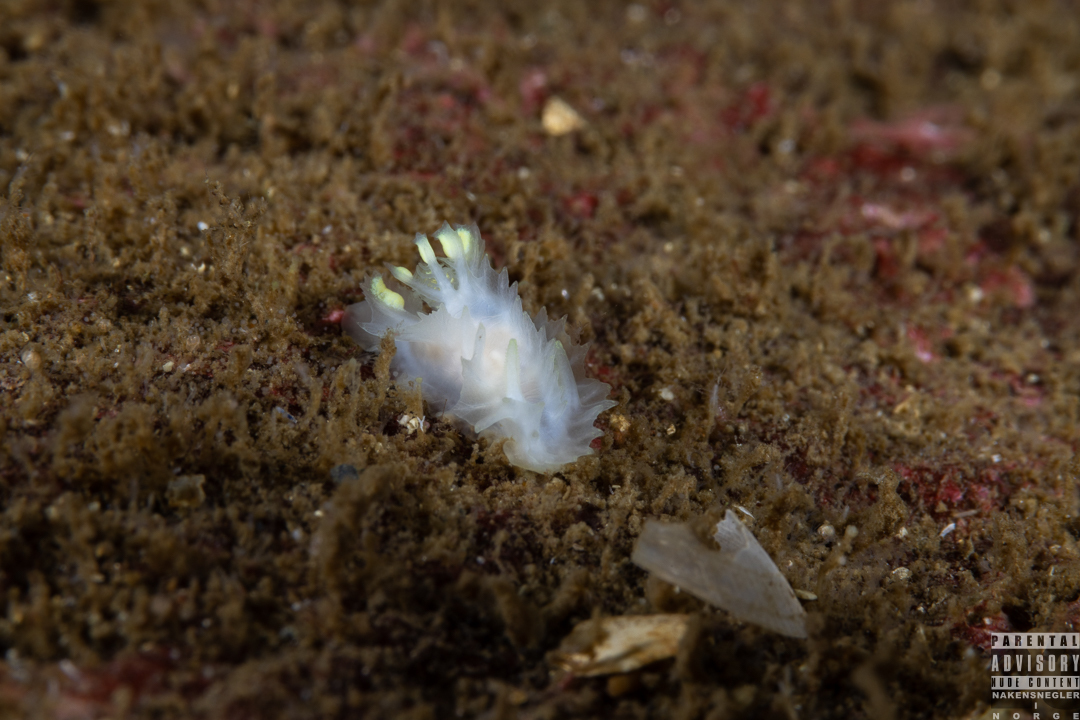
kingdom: Animalia
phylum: Mollusca
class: Gastropoda
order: Nudibranchia
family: Goniodorididae
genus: Lophodoris
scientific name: Lophodoris danielsseni
